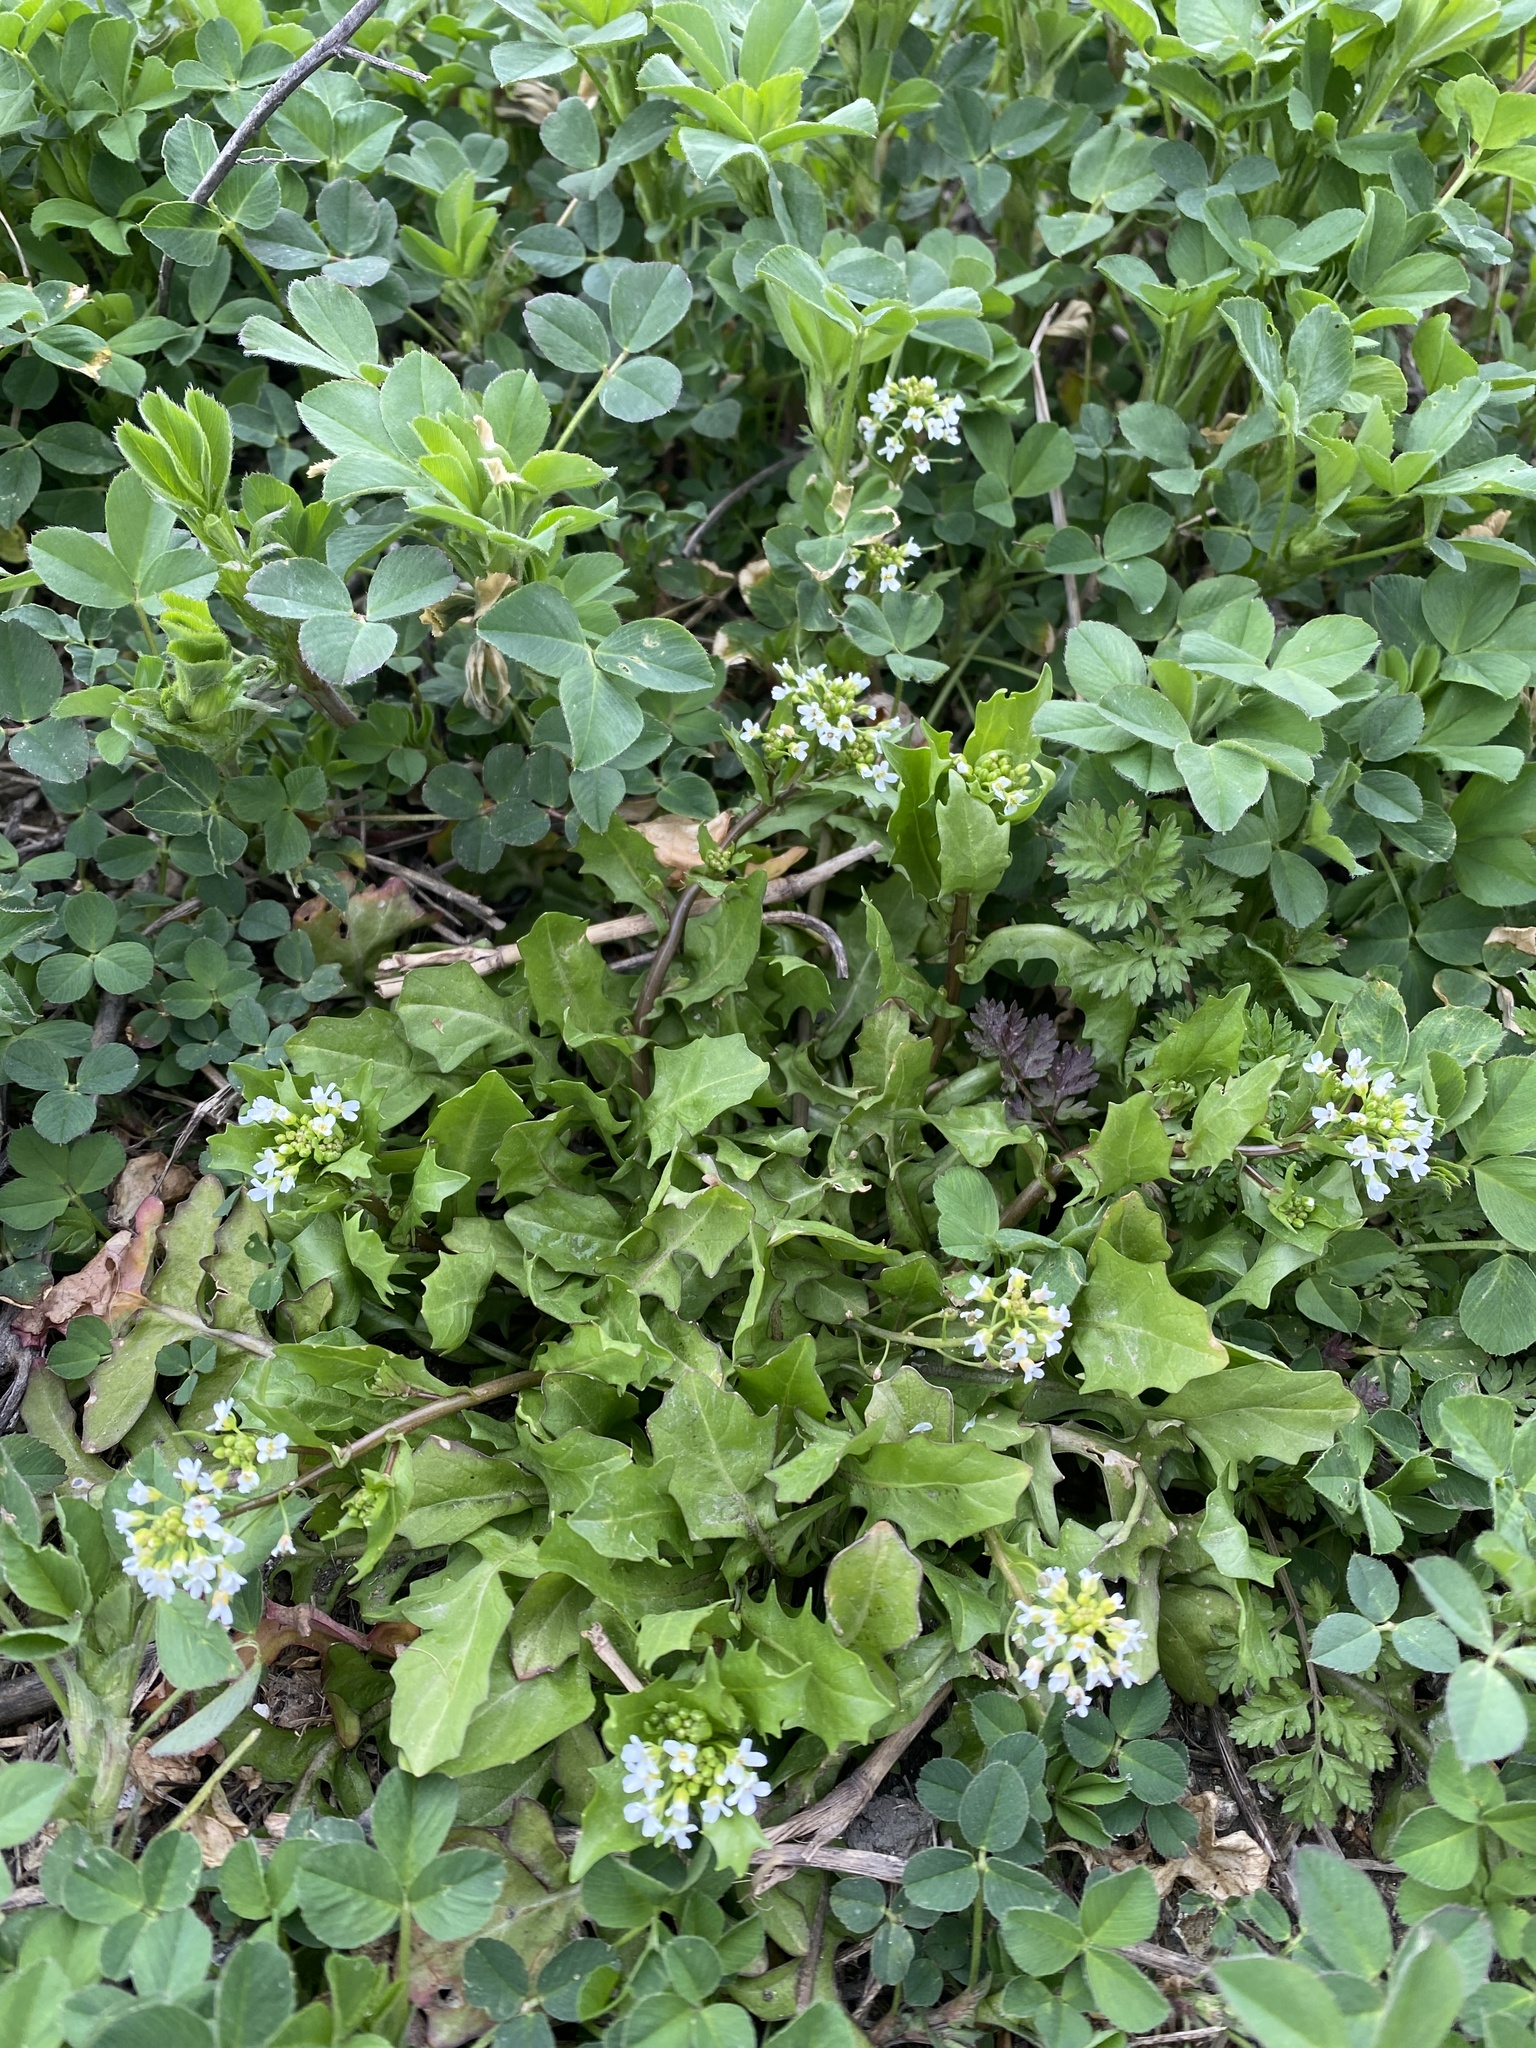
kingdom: Plantae
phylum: Tracheophyta
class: Magnoliopsida
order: Brassicales
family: Brassicaceae
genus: Calepina
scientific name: Calepina irregularis
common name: White ballmustard
